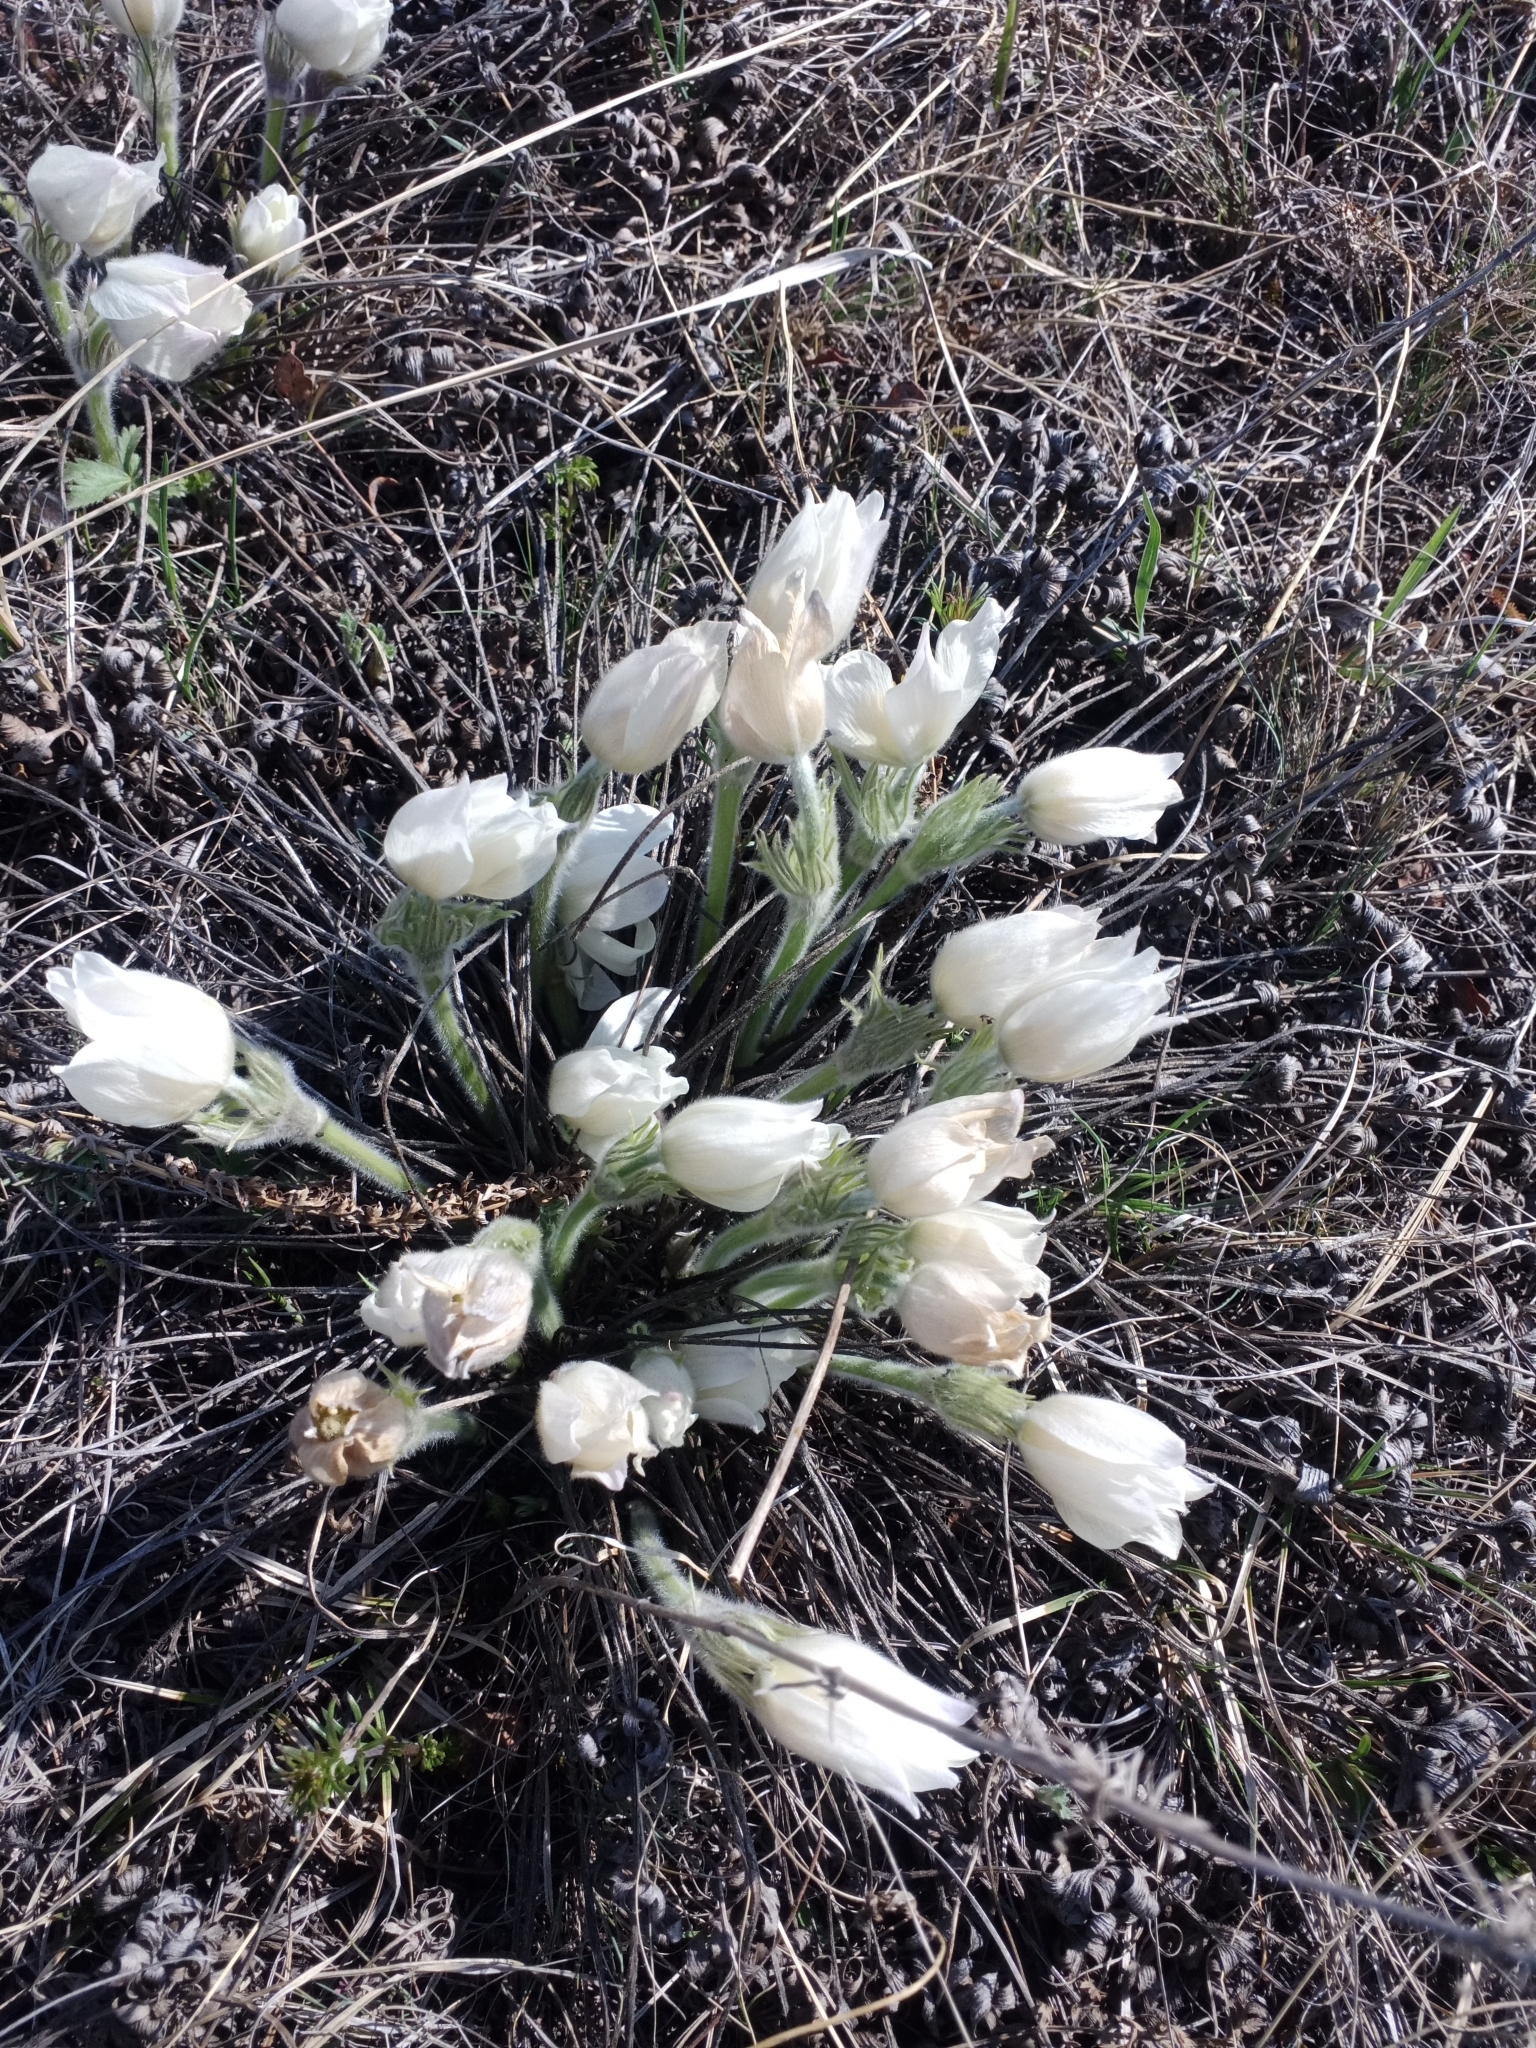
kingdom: Plantae
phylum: Tracheophyta
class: Magnoliopsida
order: Ranunculales
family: Ranunculaceae
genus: Pulsatilla
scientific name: Pulsatilla patens
